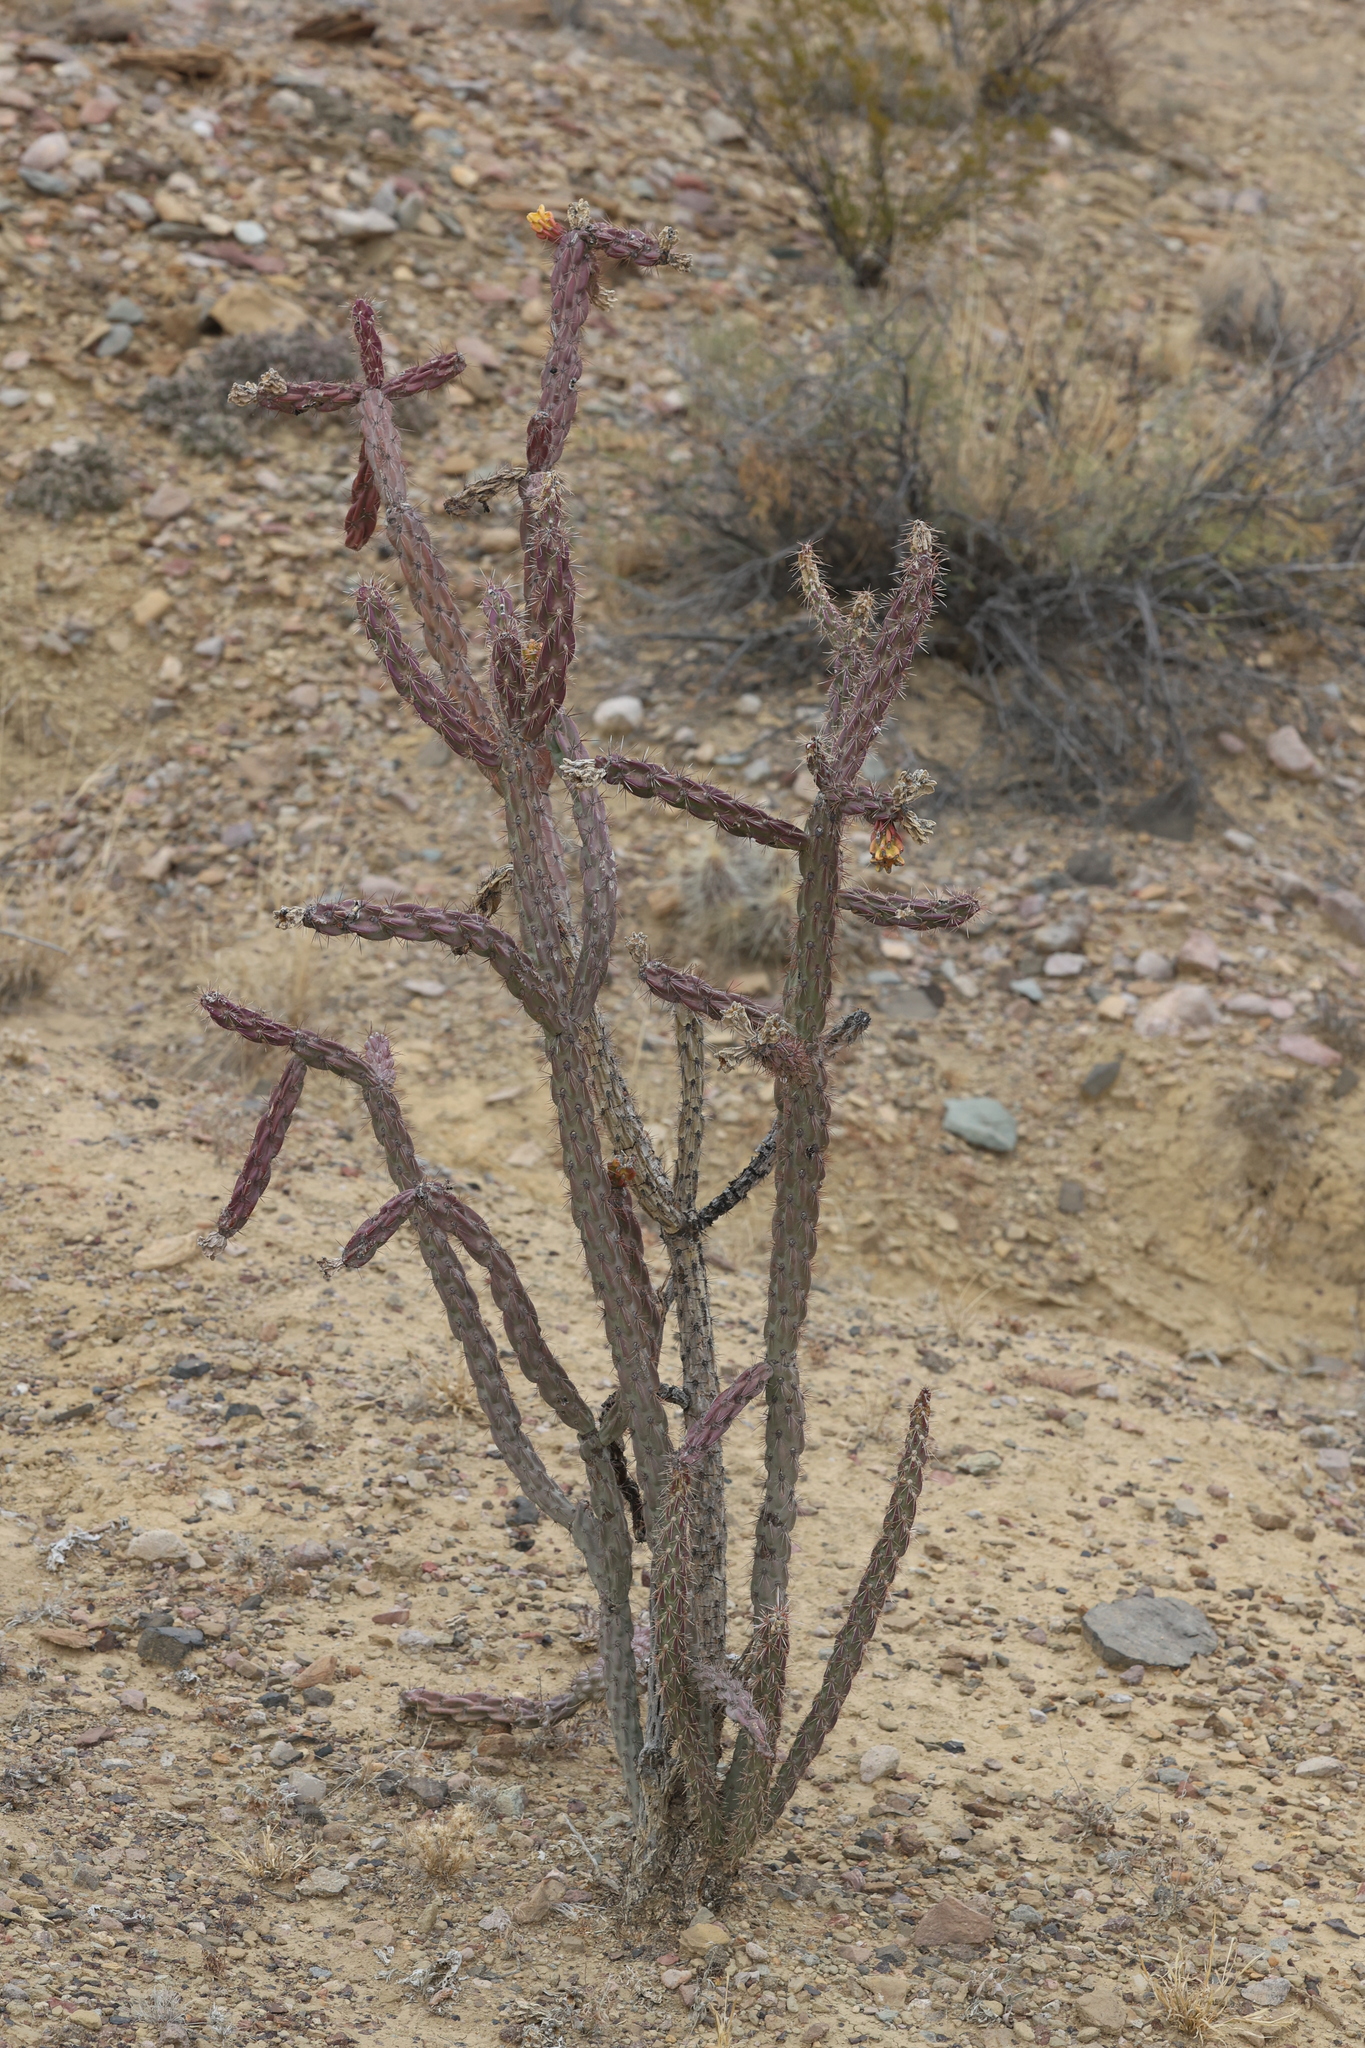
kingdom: Plantae
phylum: Tracheophyta
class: Magnoliopsida
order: Caryophyllales
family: Cactaceae
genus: Cylindropuntia
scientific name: Cylindropuntia imbricata
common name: Candelabrum cactus
